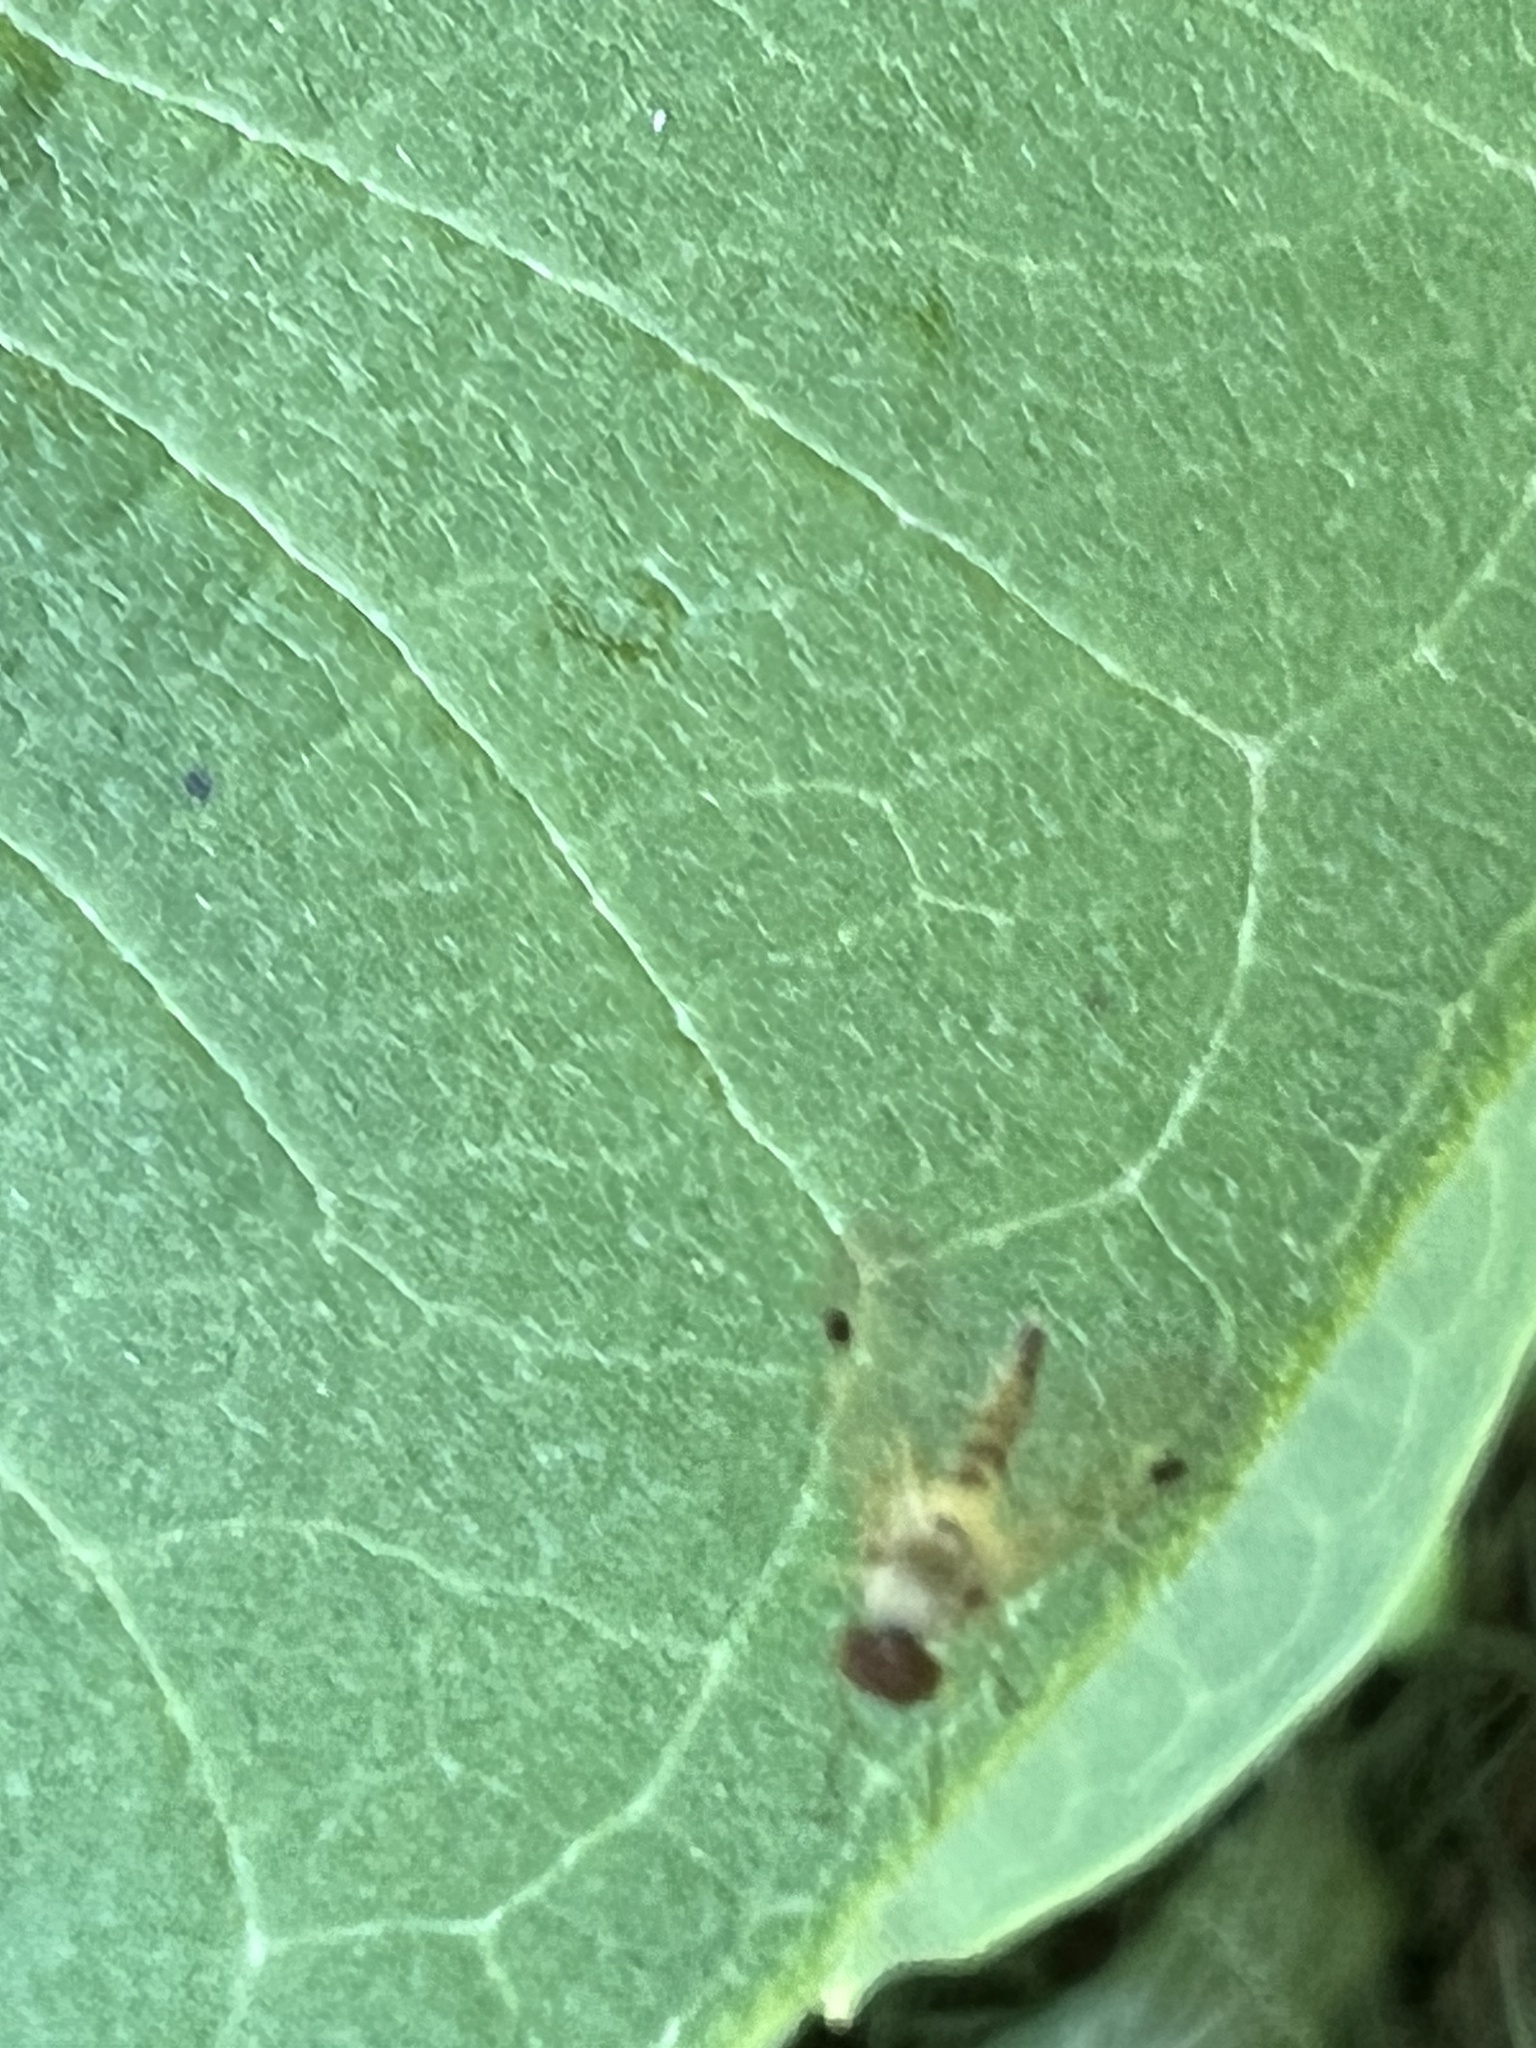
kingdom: Animalia
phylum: Arthropoda
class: Insecta
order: Diptera
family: Rhagionidae
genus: Chrysopilus
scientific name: Chrysopilus modestus
